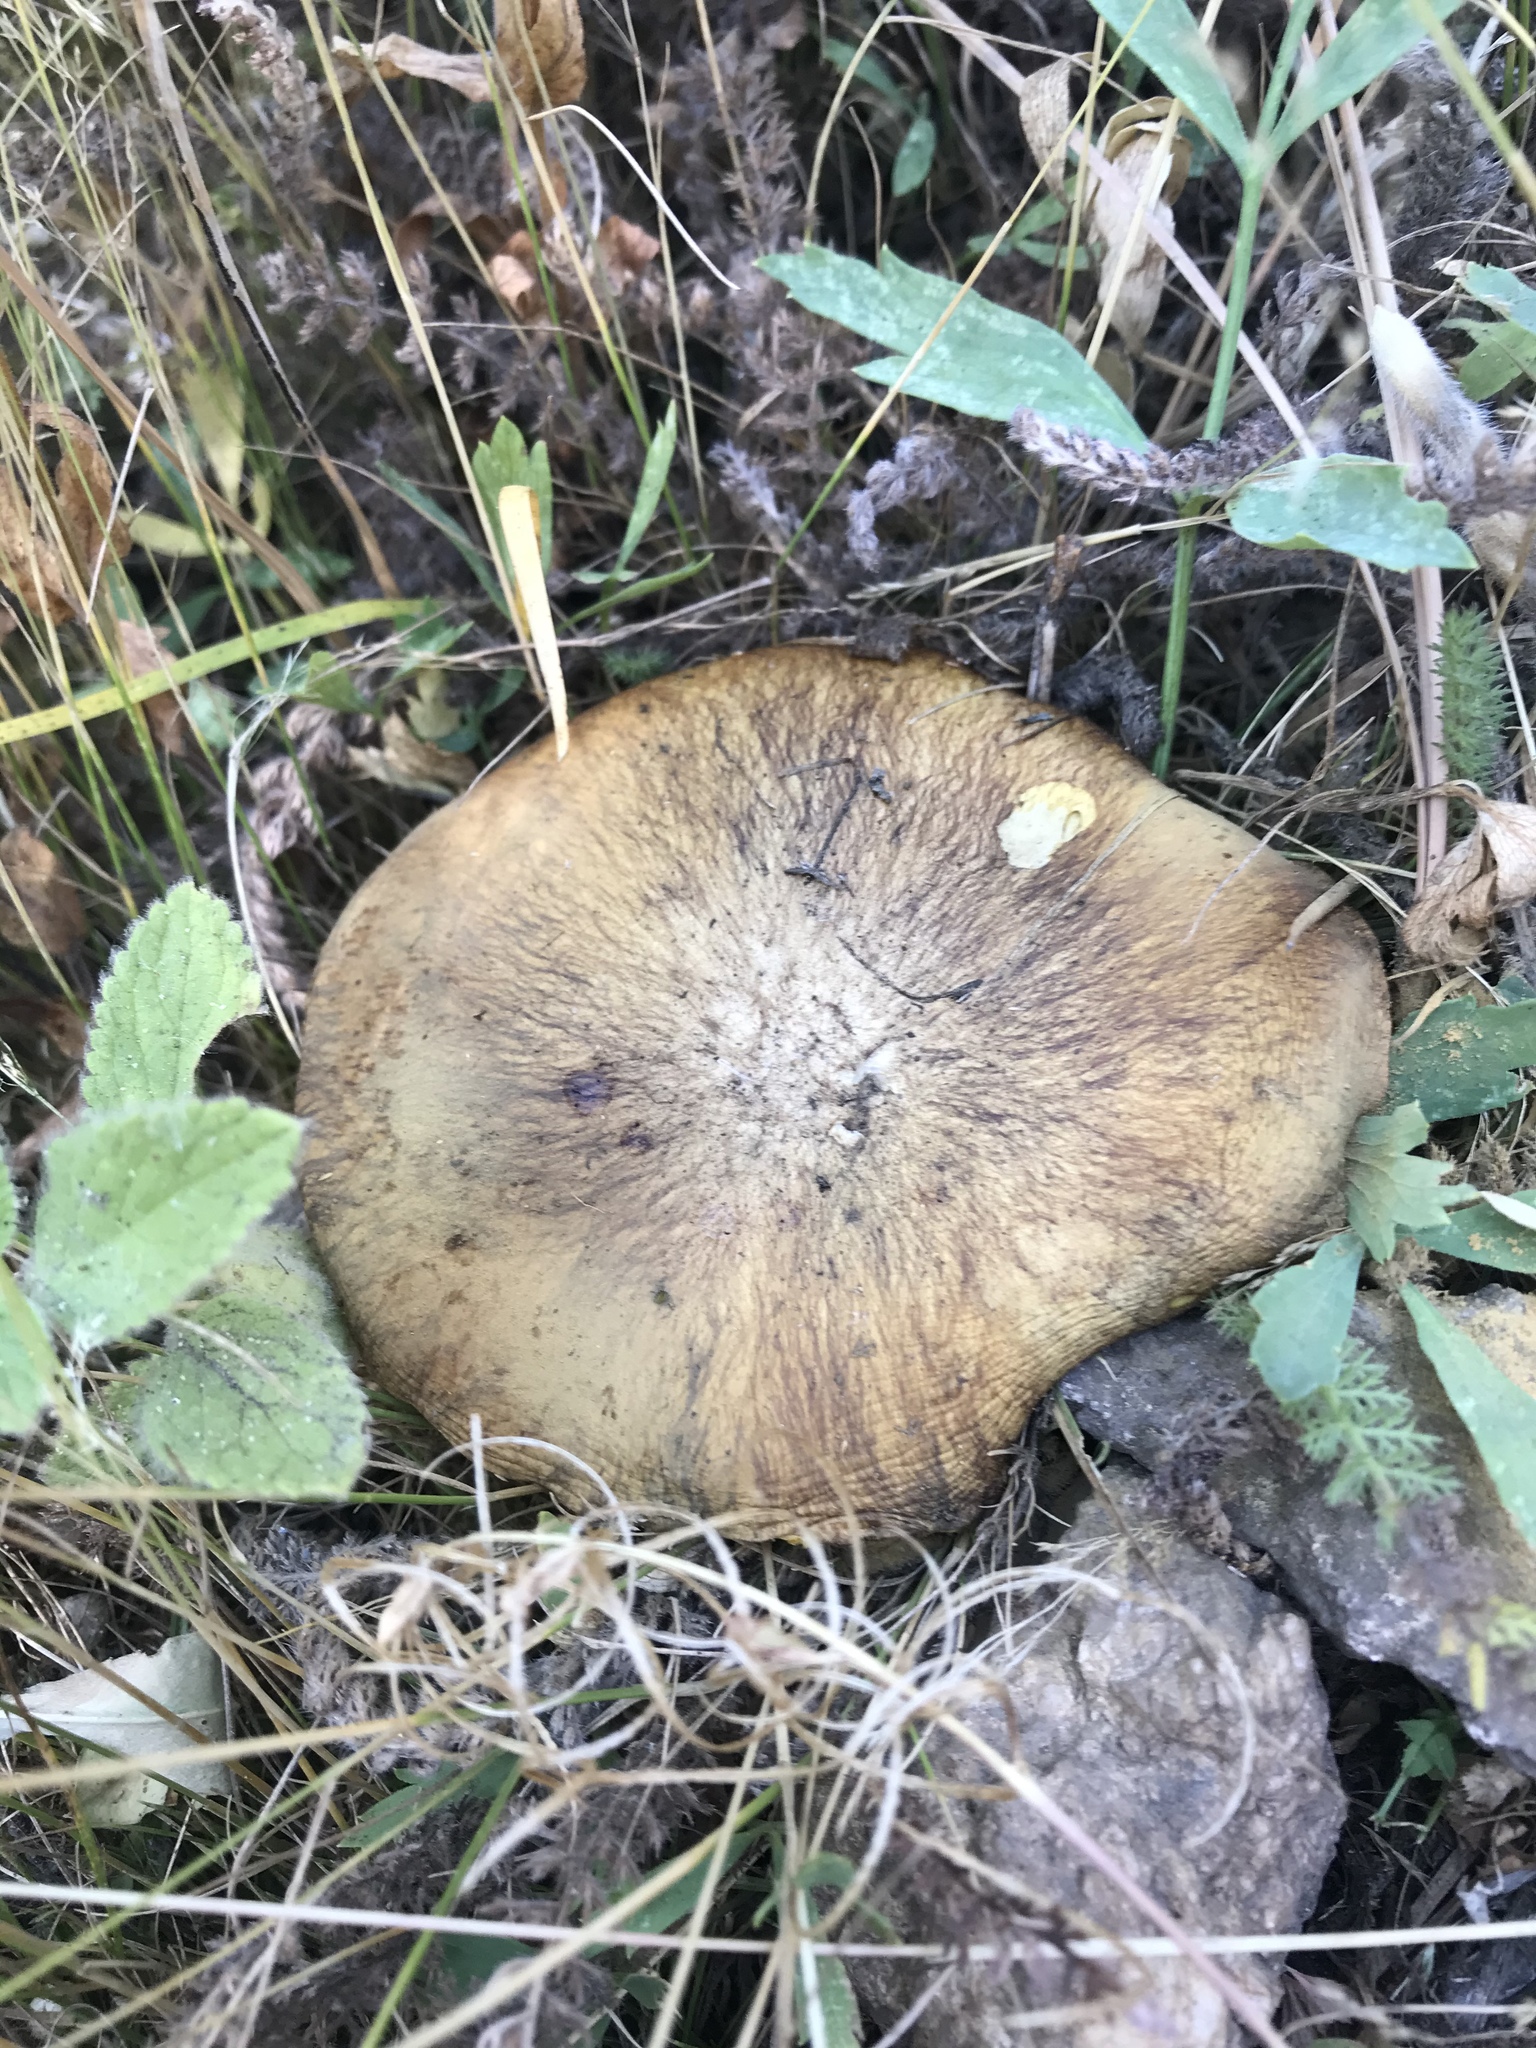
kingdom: Fungi
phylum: Basidiomycota
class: Agaricomycetes
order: Boletales
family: Suillaceae
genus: Suillus
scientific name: Suillus brevipes
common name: Short-stalked suillus
